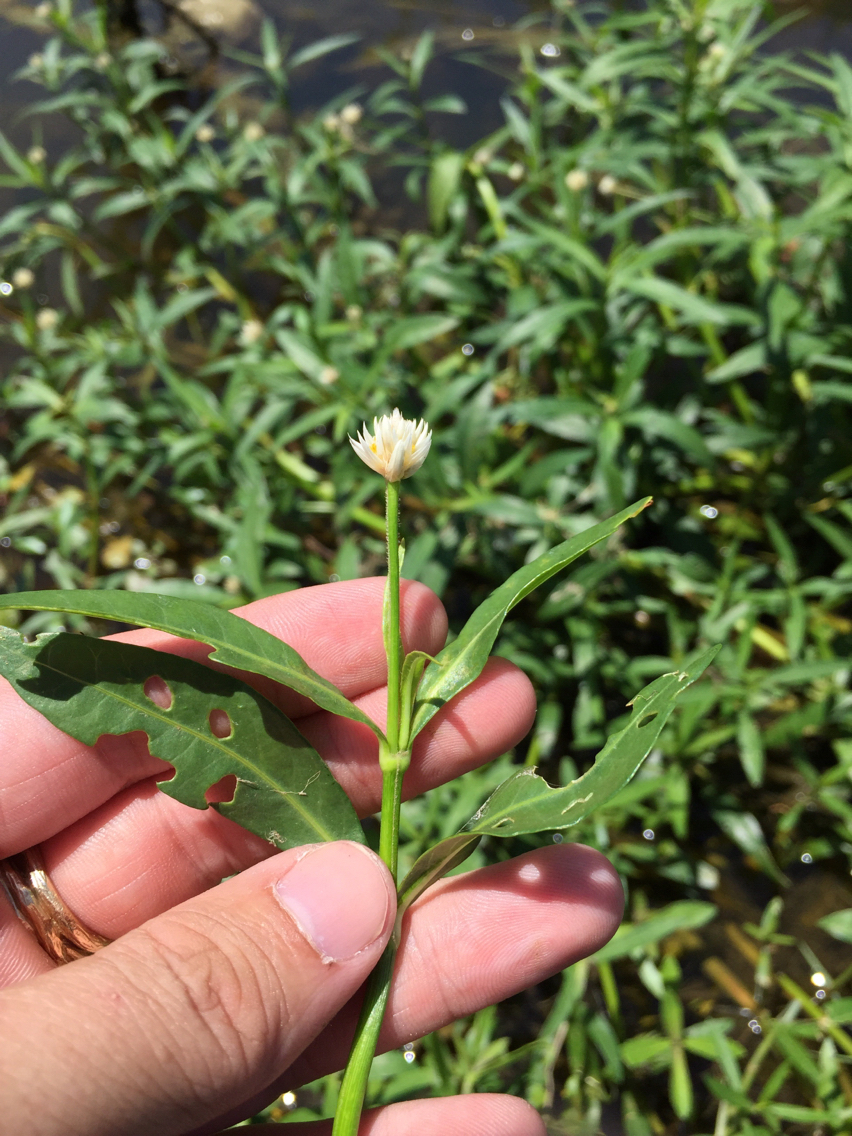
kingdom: Plantae
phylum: Tracheophyta
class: Magnoliopsida
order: Caryophyllales
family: Amaranthaceae
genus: Alternanthera
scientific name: Alternanthera philoxeroides
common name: Alligatorweed
